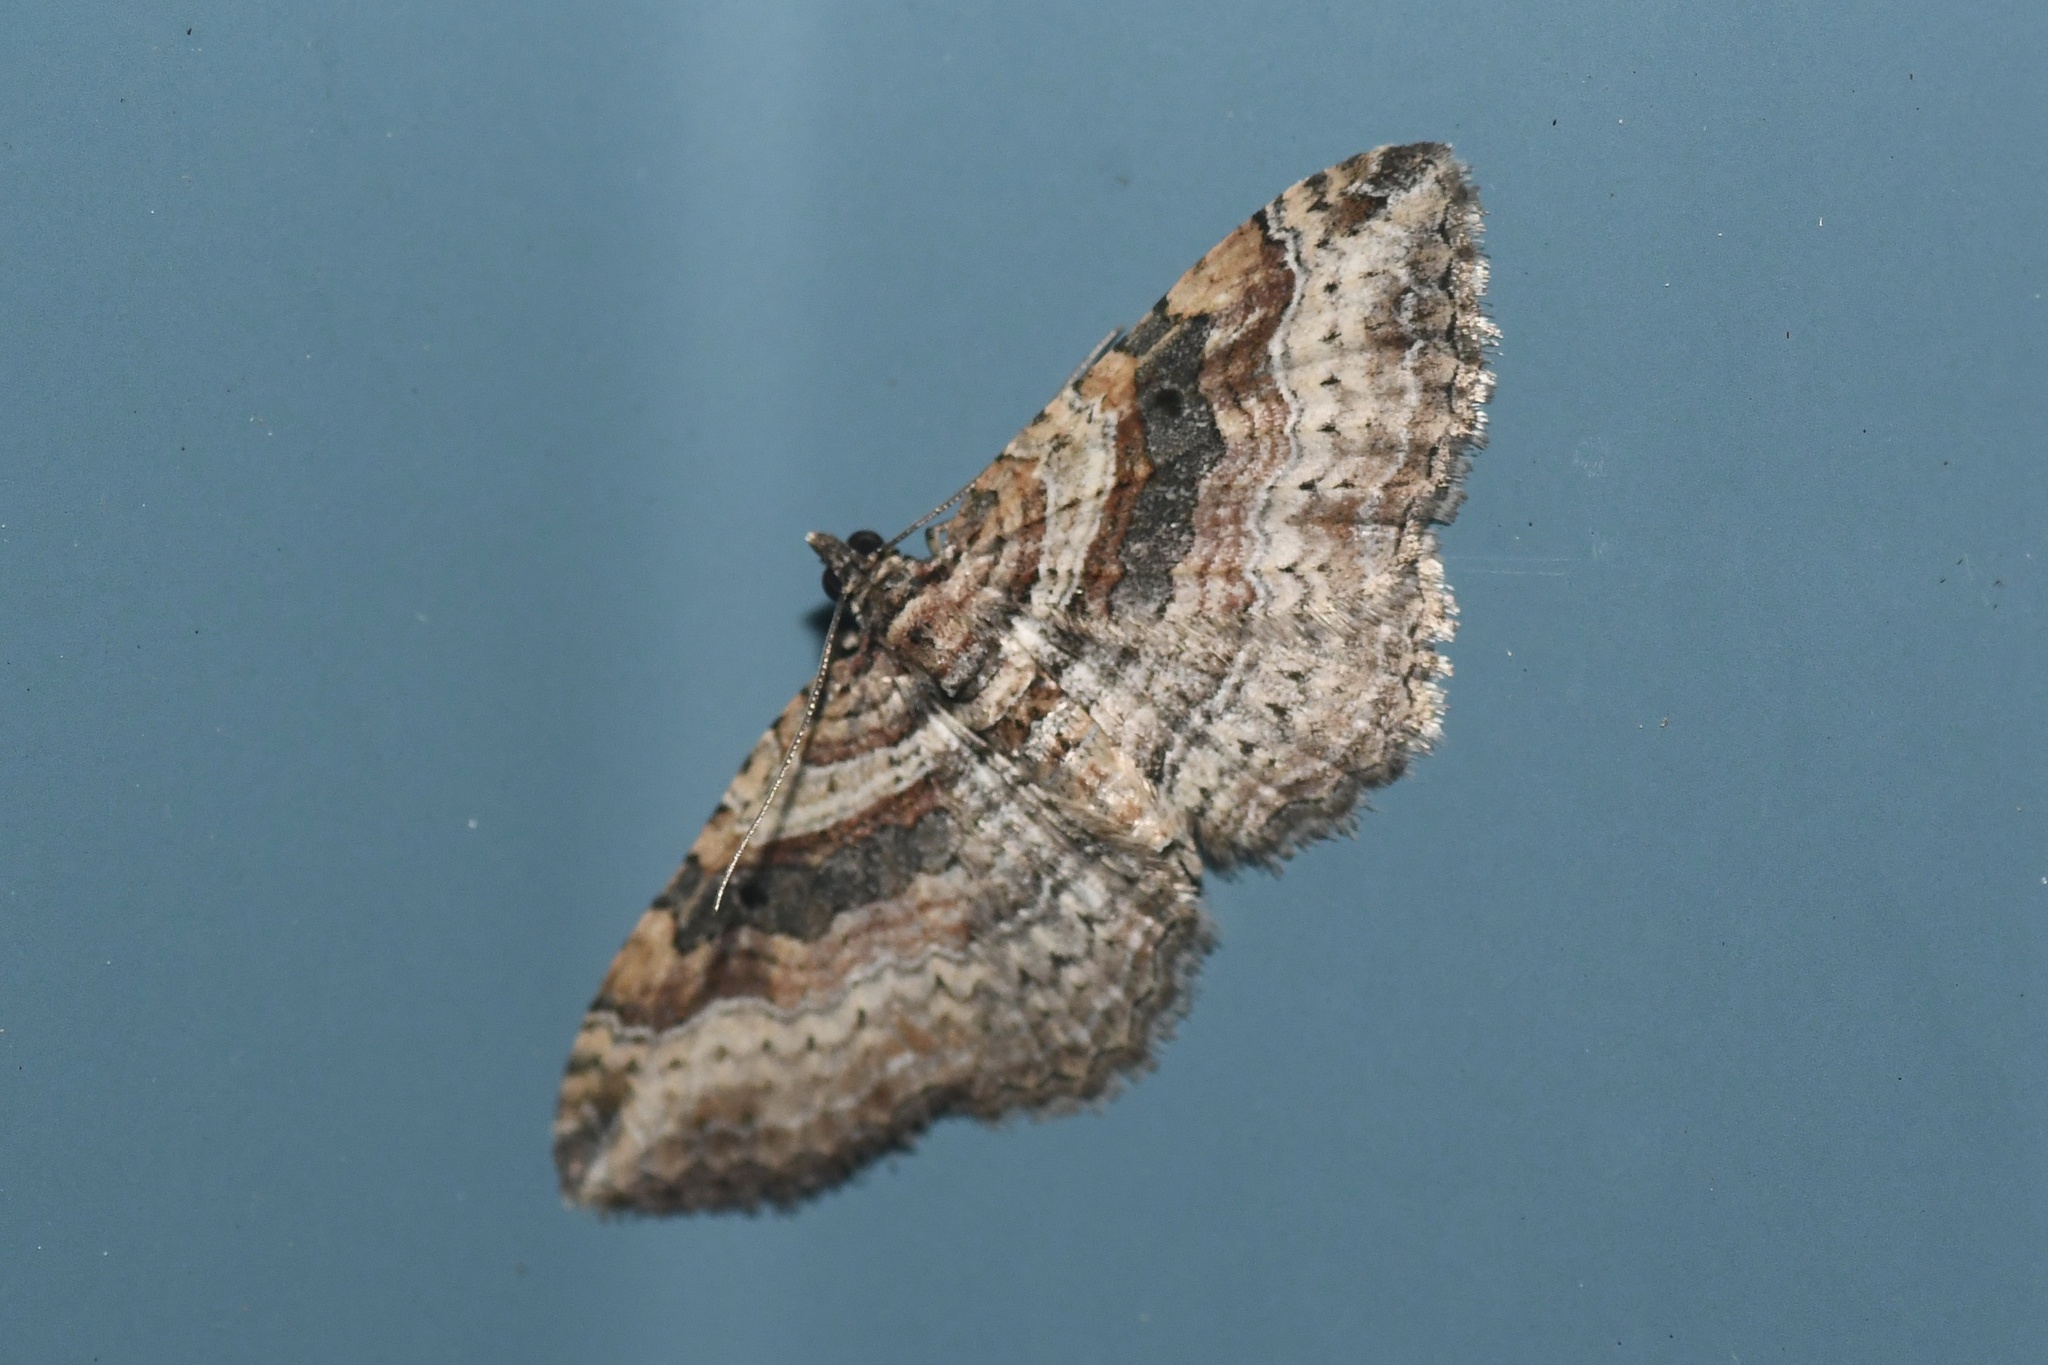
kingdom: Animalia
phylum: Arthropoda
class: Insecta
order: Lepidoptera
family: Geometridae
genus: Costaconvexa
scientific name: Costaconvexa centrostrigaria
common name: Bent-line carpet
